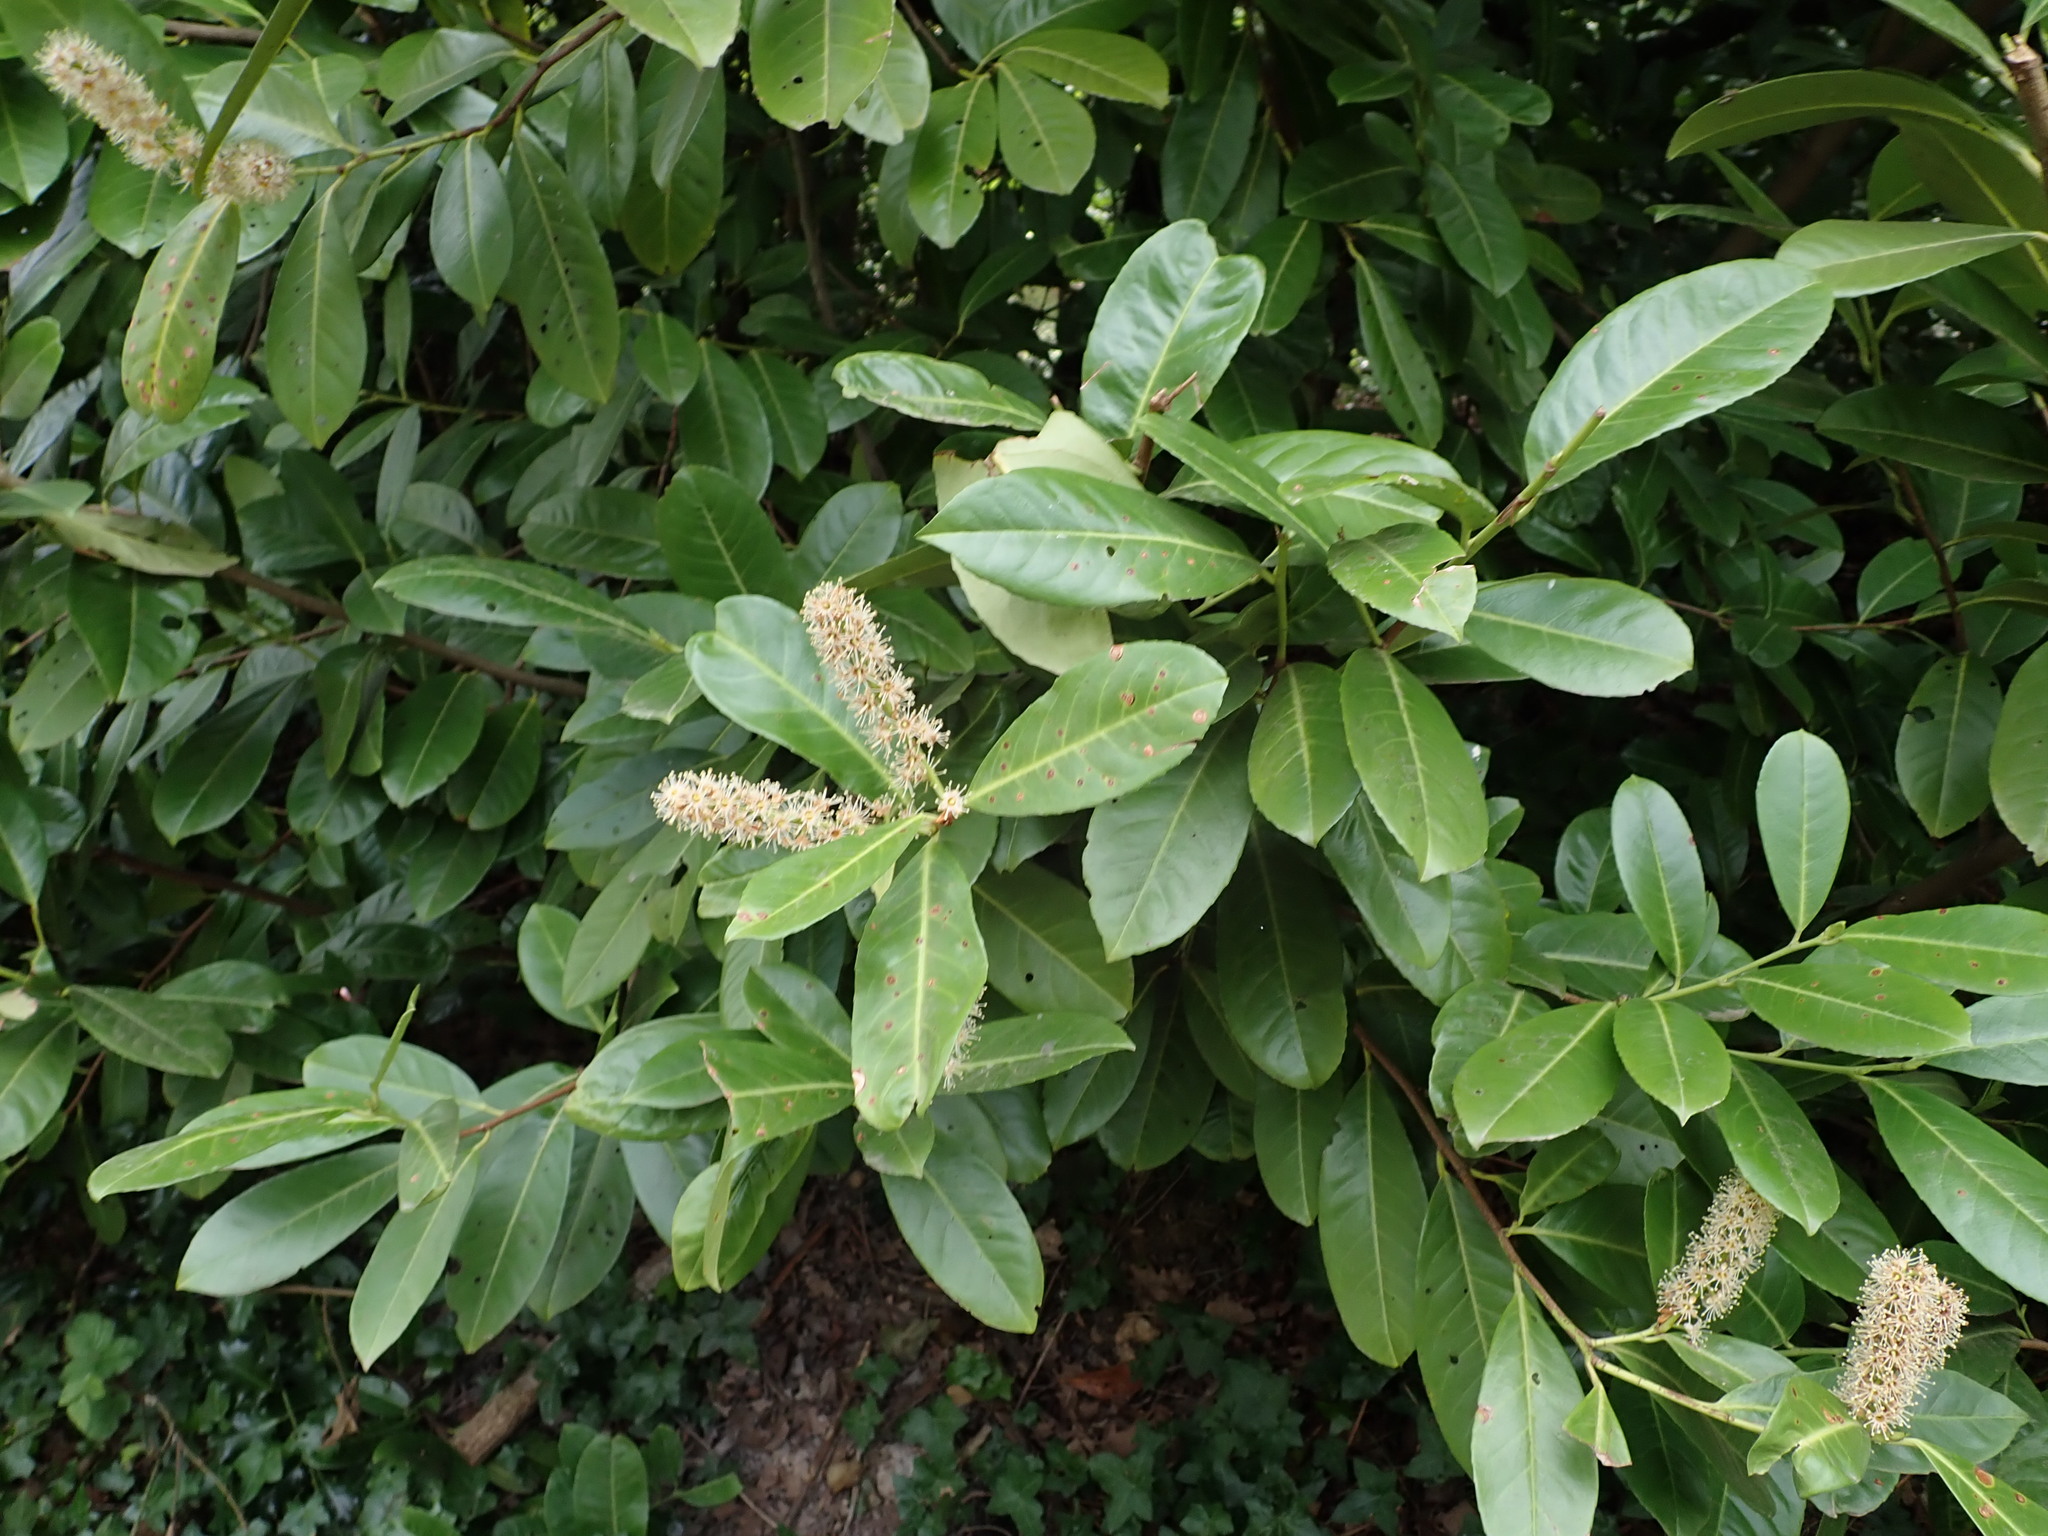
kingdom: Plantae
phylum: Tracheophyta
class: Magnoliopsida
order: Rosales
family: Rosaceae
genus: Prunus
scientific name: Prunus laurocerasus
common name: Cherry laurel
